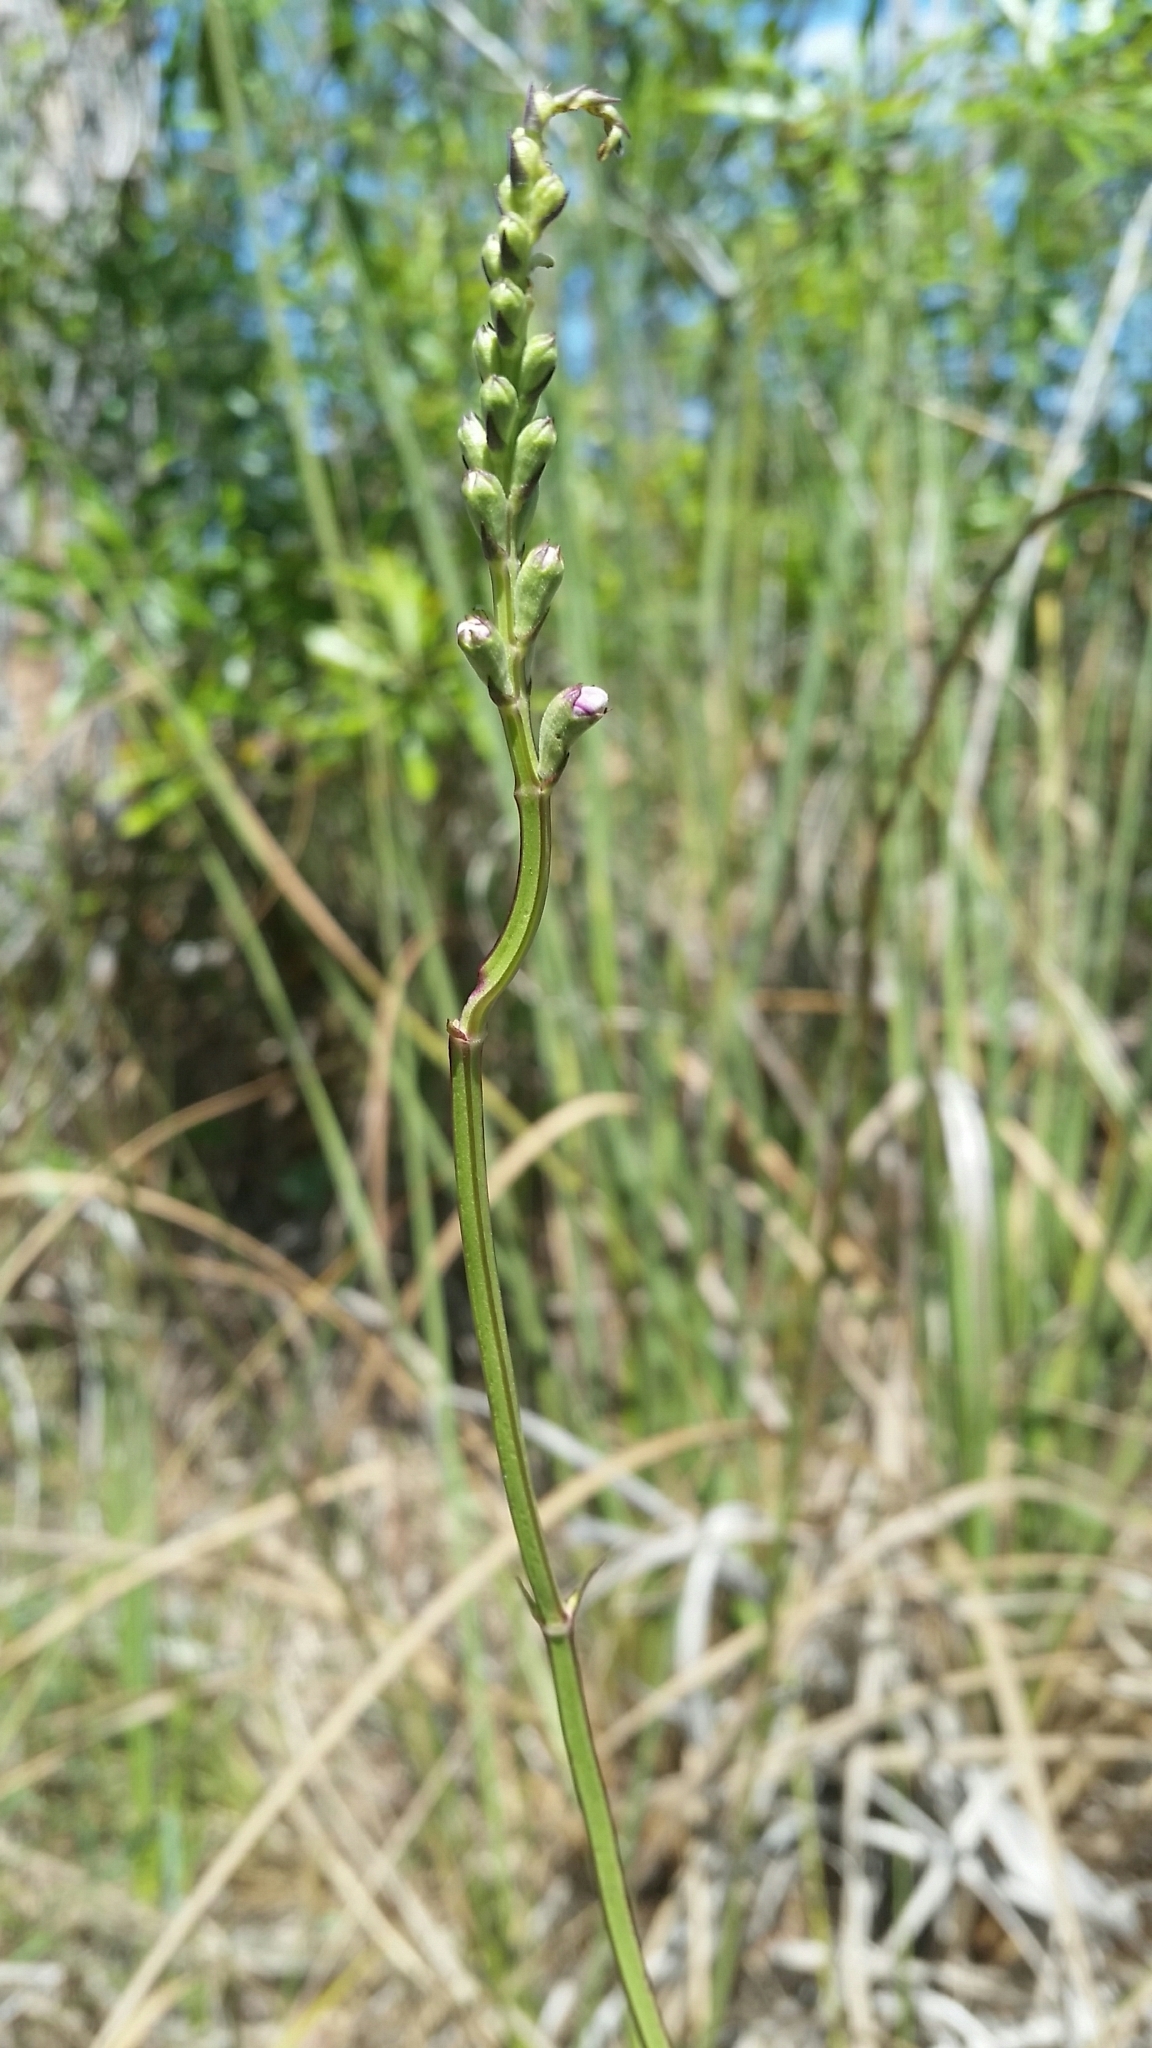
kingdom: Plantae
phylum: Tracheophyta
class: Magnoliopsida
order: Lamiales
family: Lamiaceae
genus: Physostegia
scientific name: Physostegia purpurea
